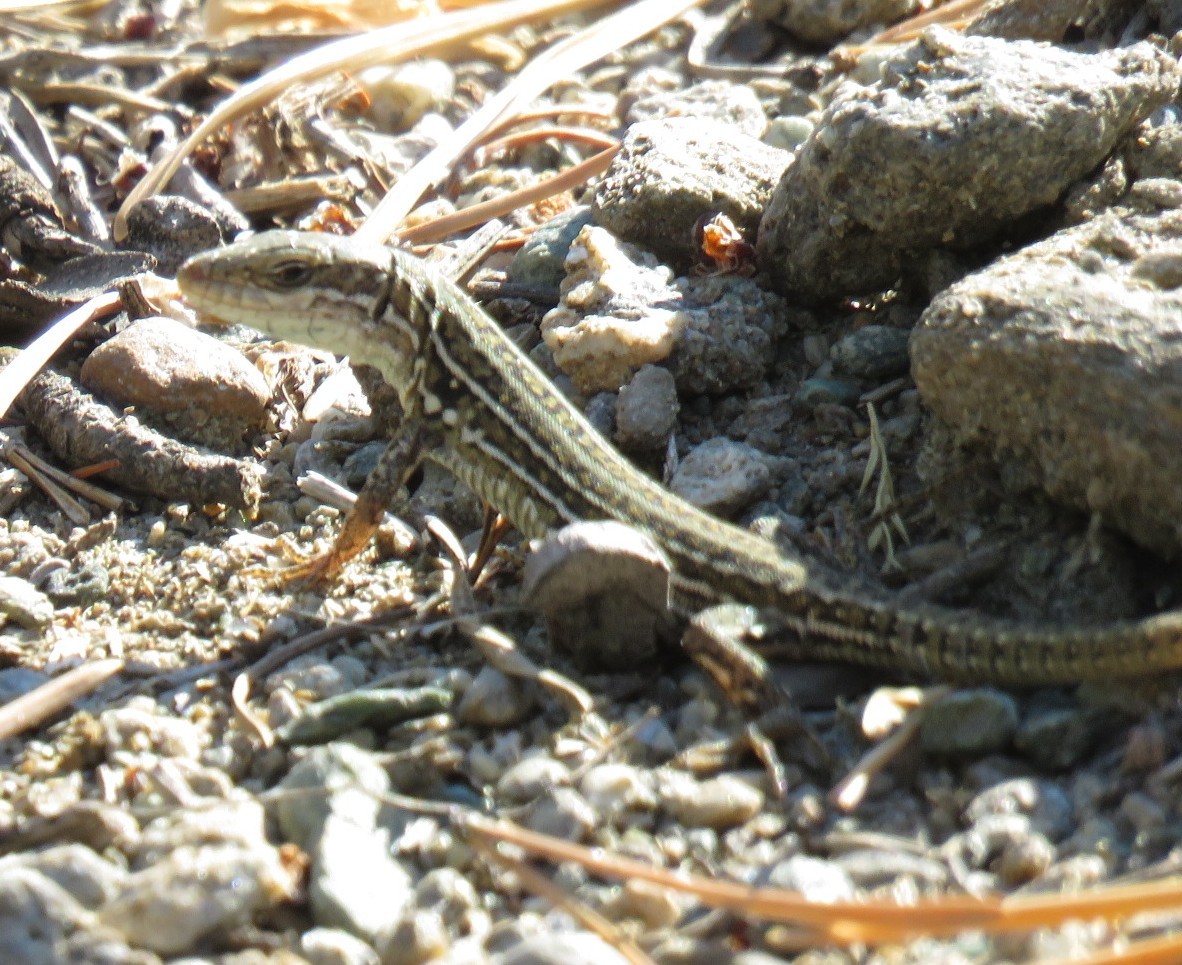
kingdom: Animalia
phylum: Chordata
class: Squamata
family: Lacertidae
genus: Podarcis
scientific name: Podarcis siculus
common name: Italian wall lizard
